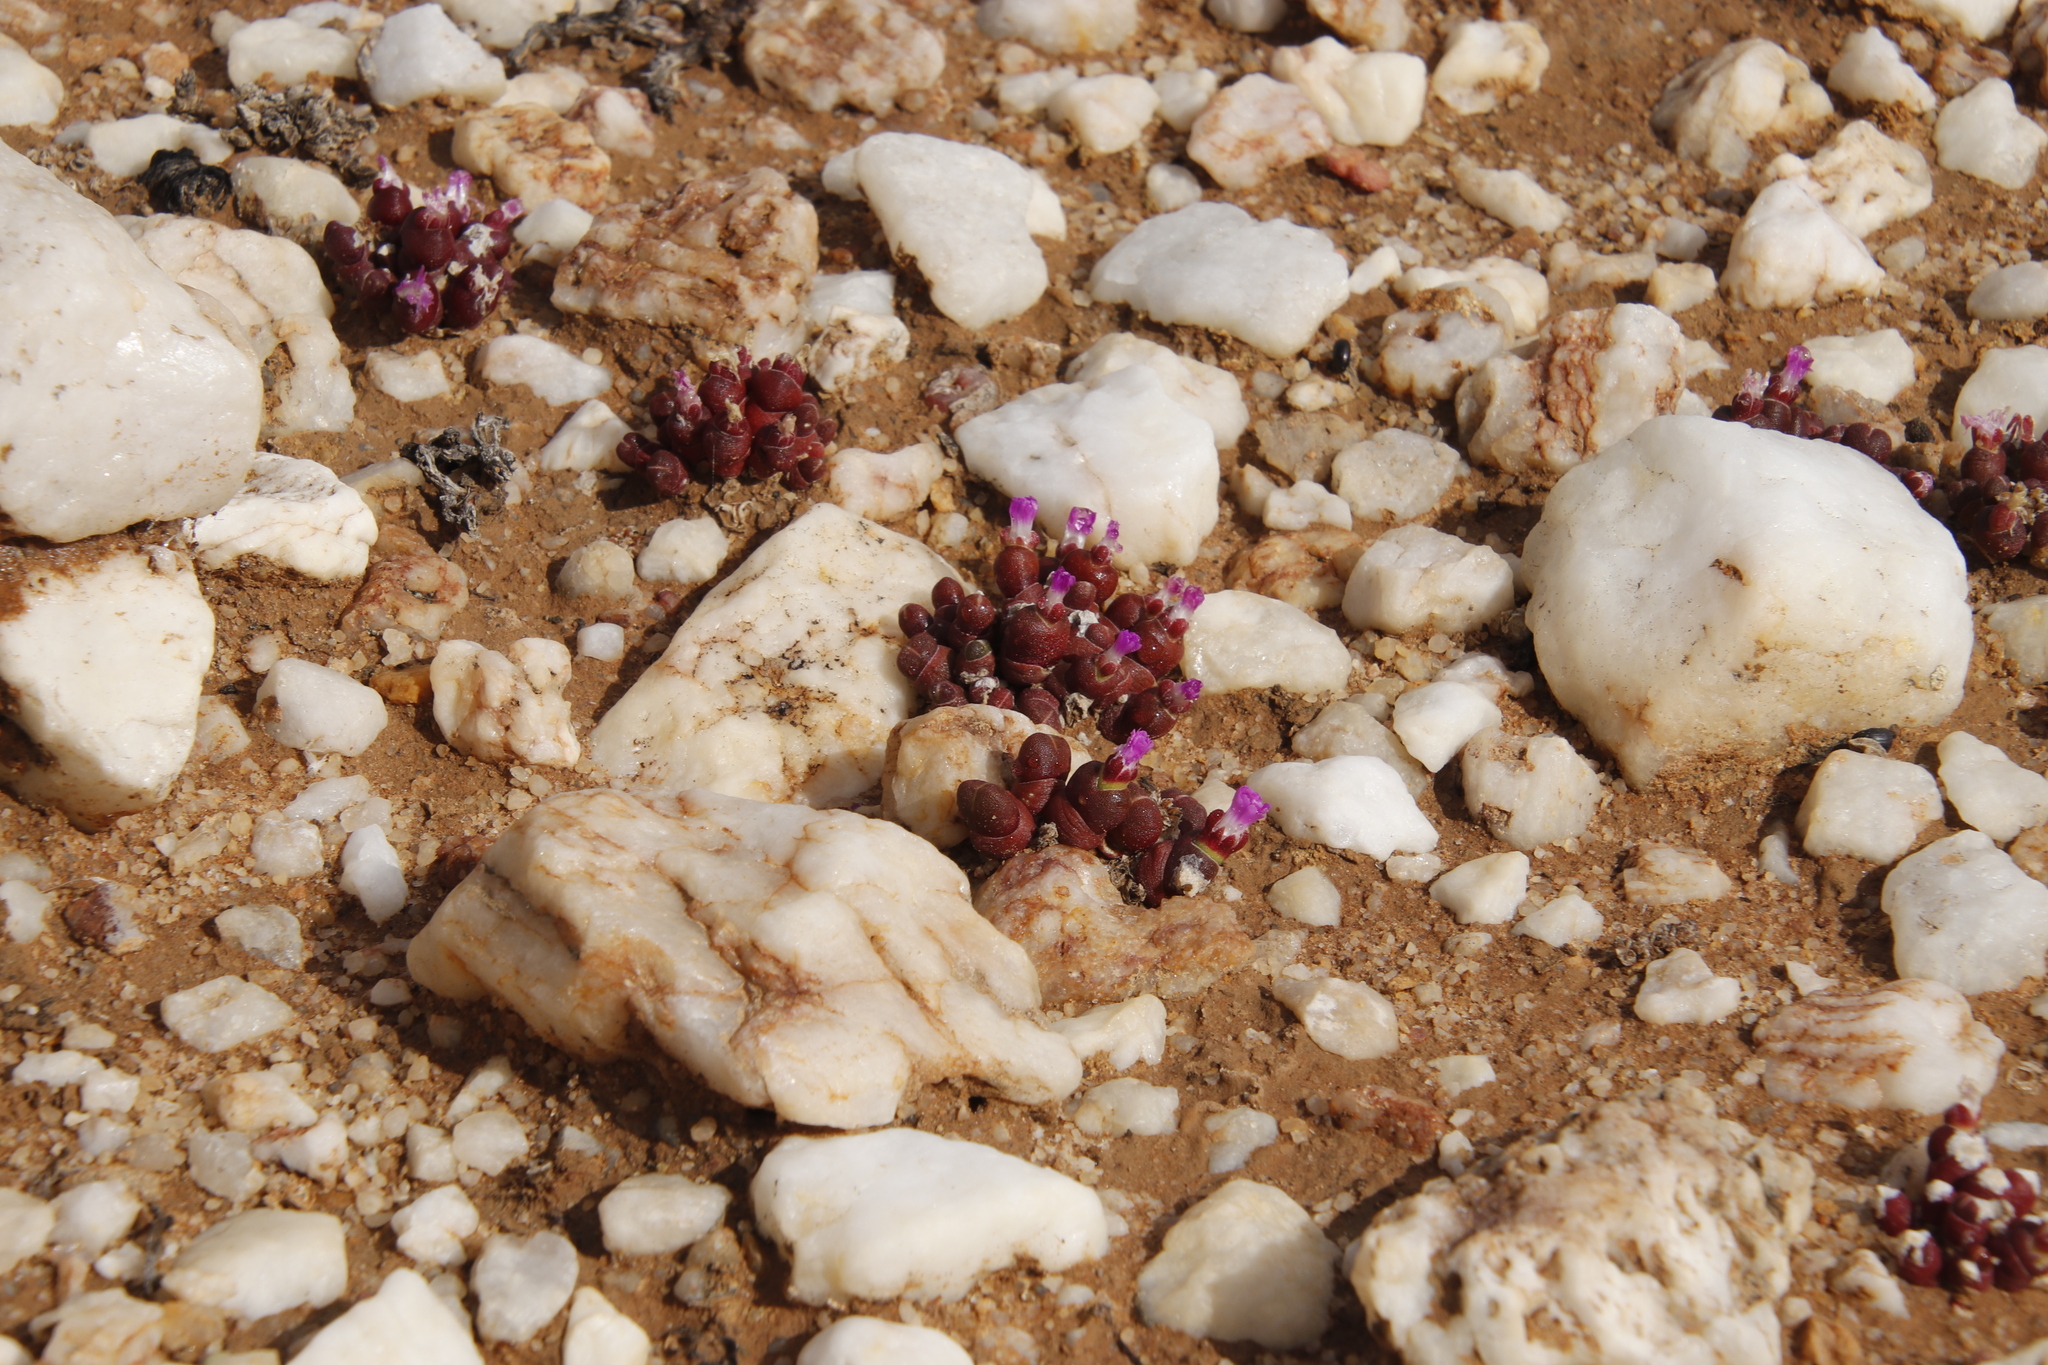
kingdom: Plantae
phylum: Tracheophyta
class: Magnoliopsida
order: Caryophyllales
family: Aizoaceae
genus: Oophytum
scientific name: Oophytum nanum
